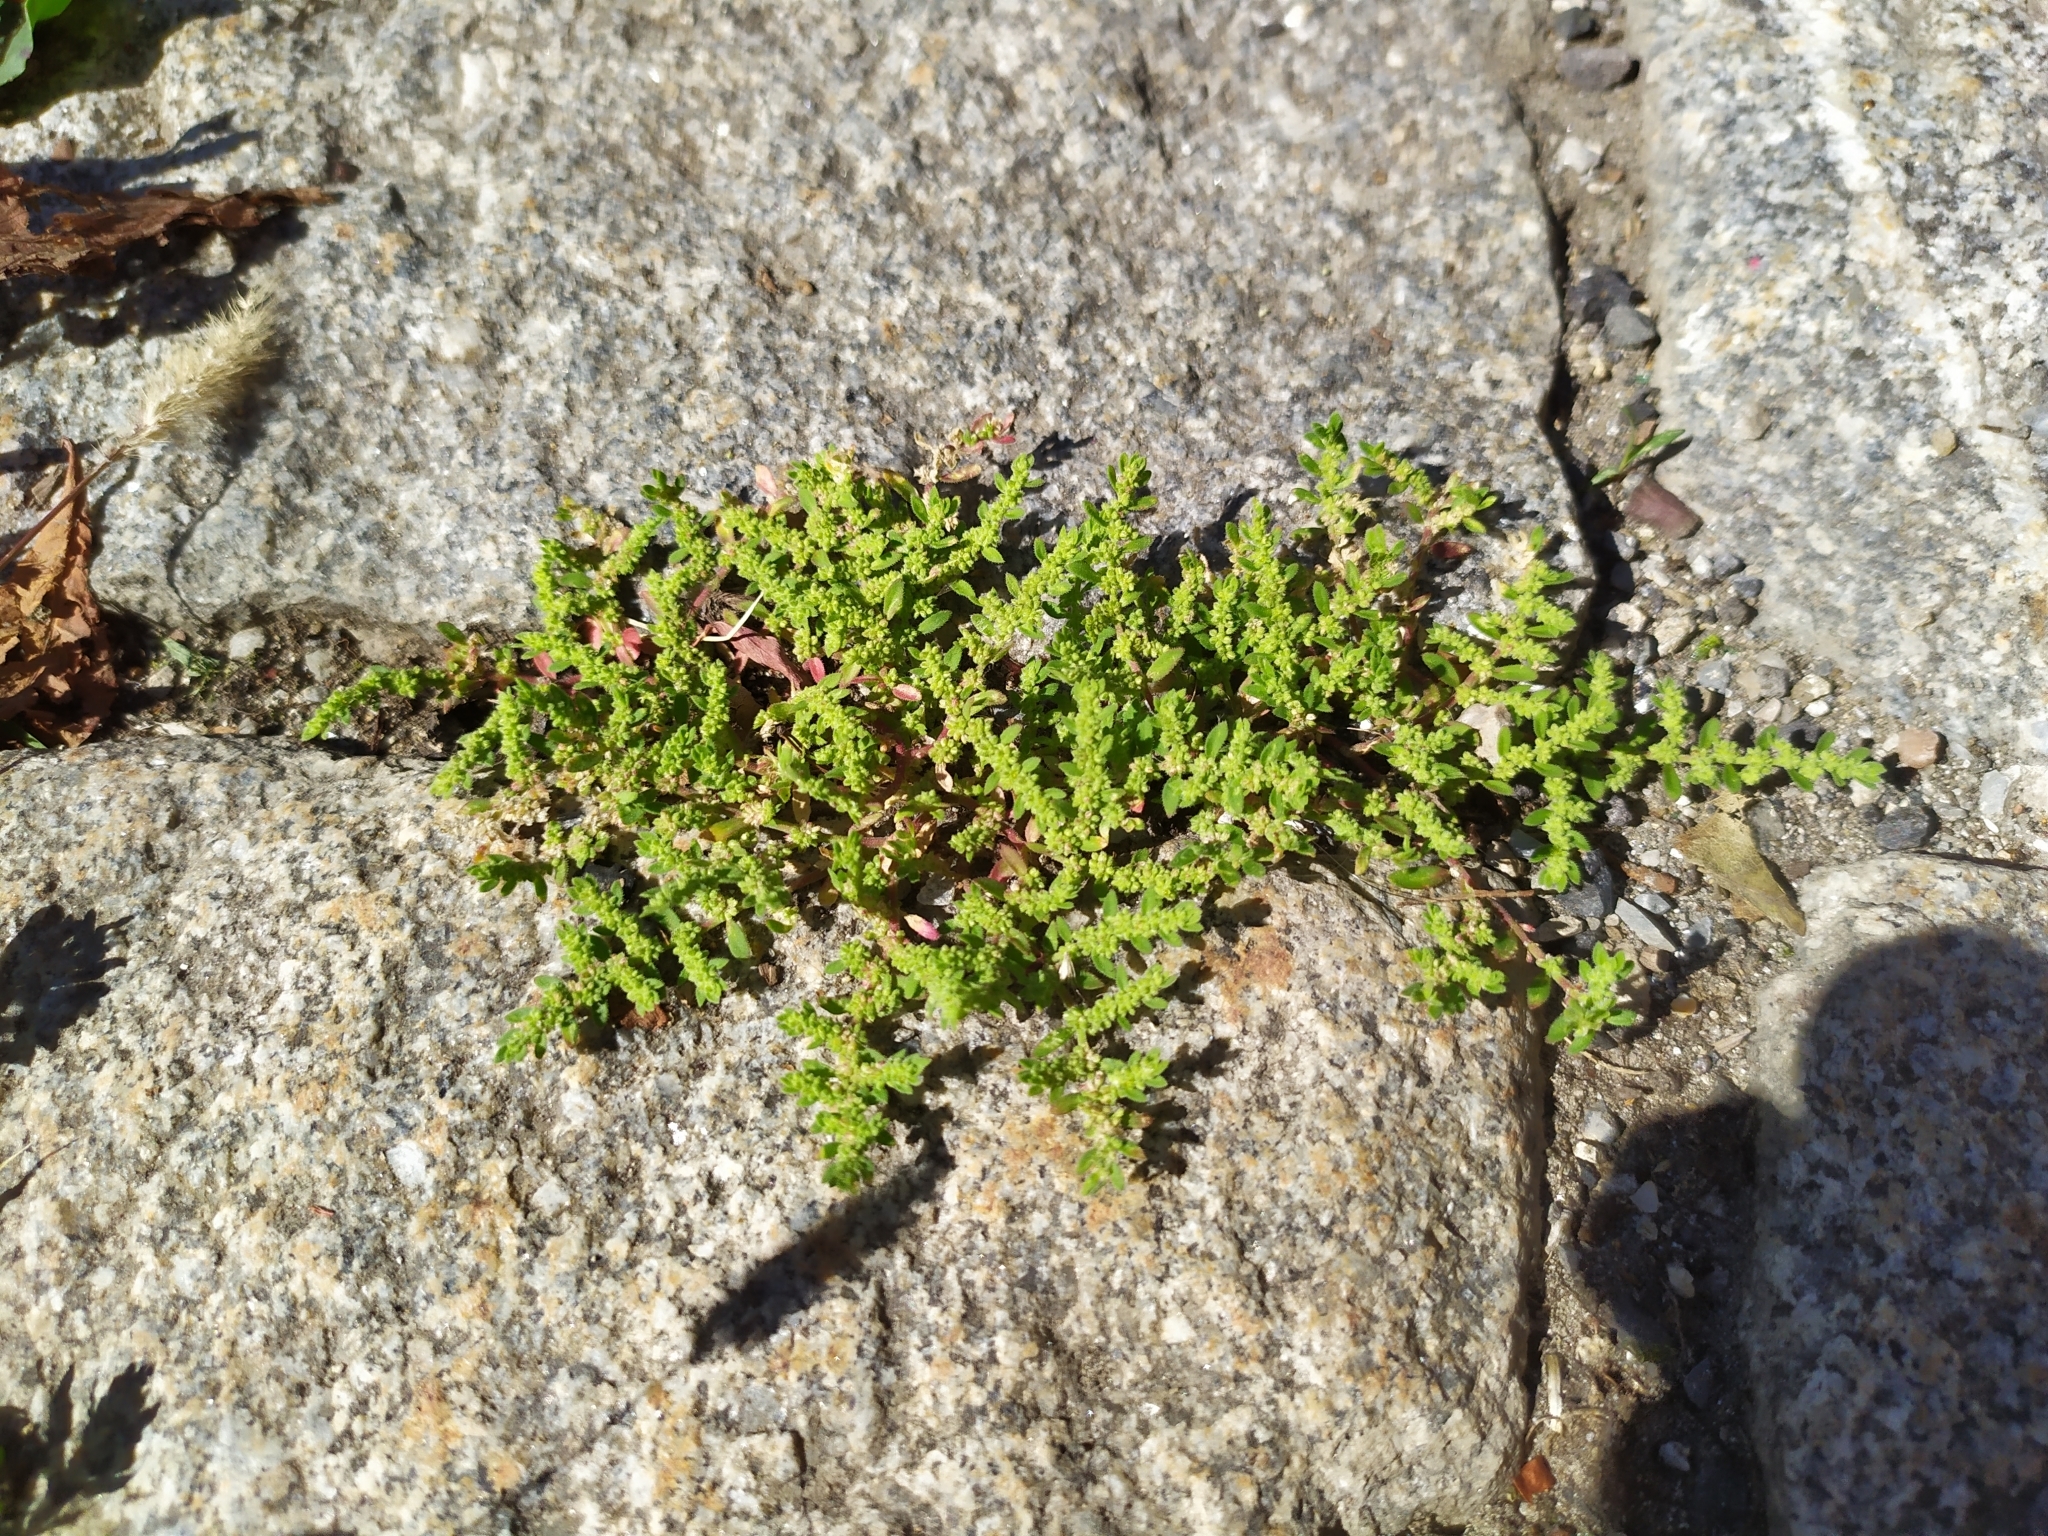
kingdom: Plantae
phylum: Tracheophyta
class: Magnoliopsida
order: Caryophyllales
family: Caryophyllaceae
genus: Herniaria
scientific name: Herniaria hirsuta
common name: Hairy rupturewort
